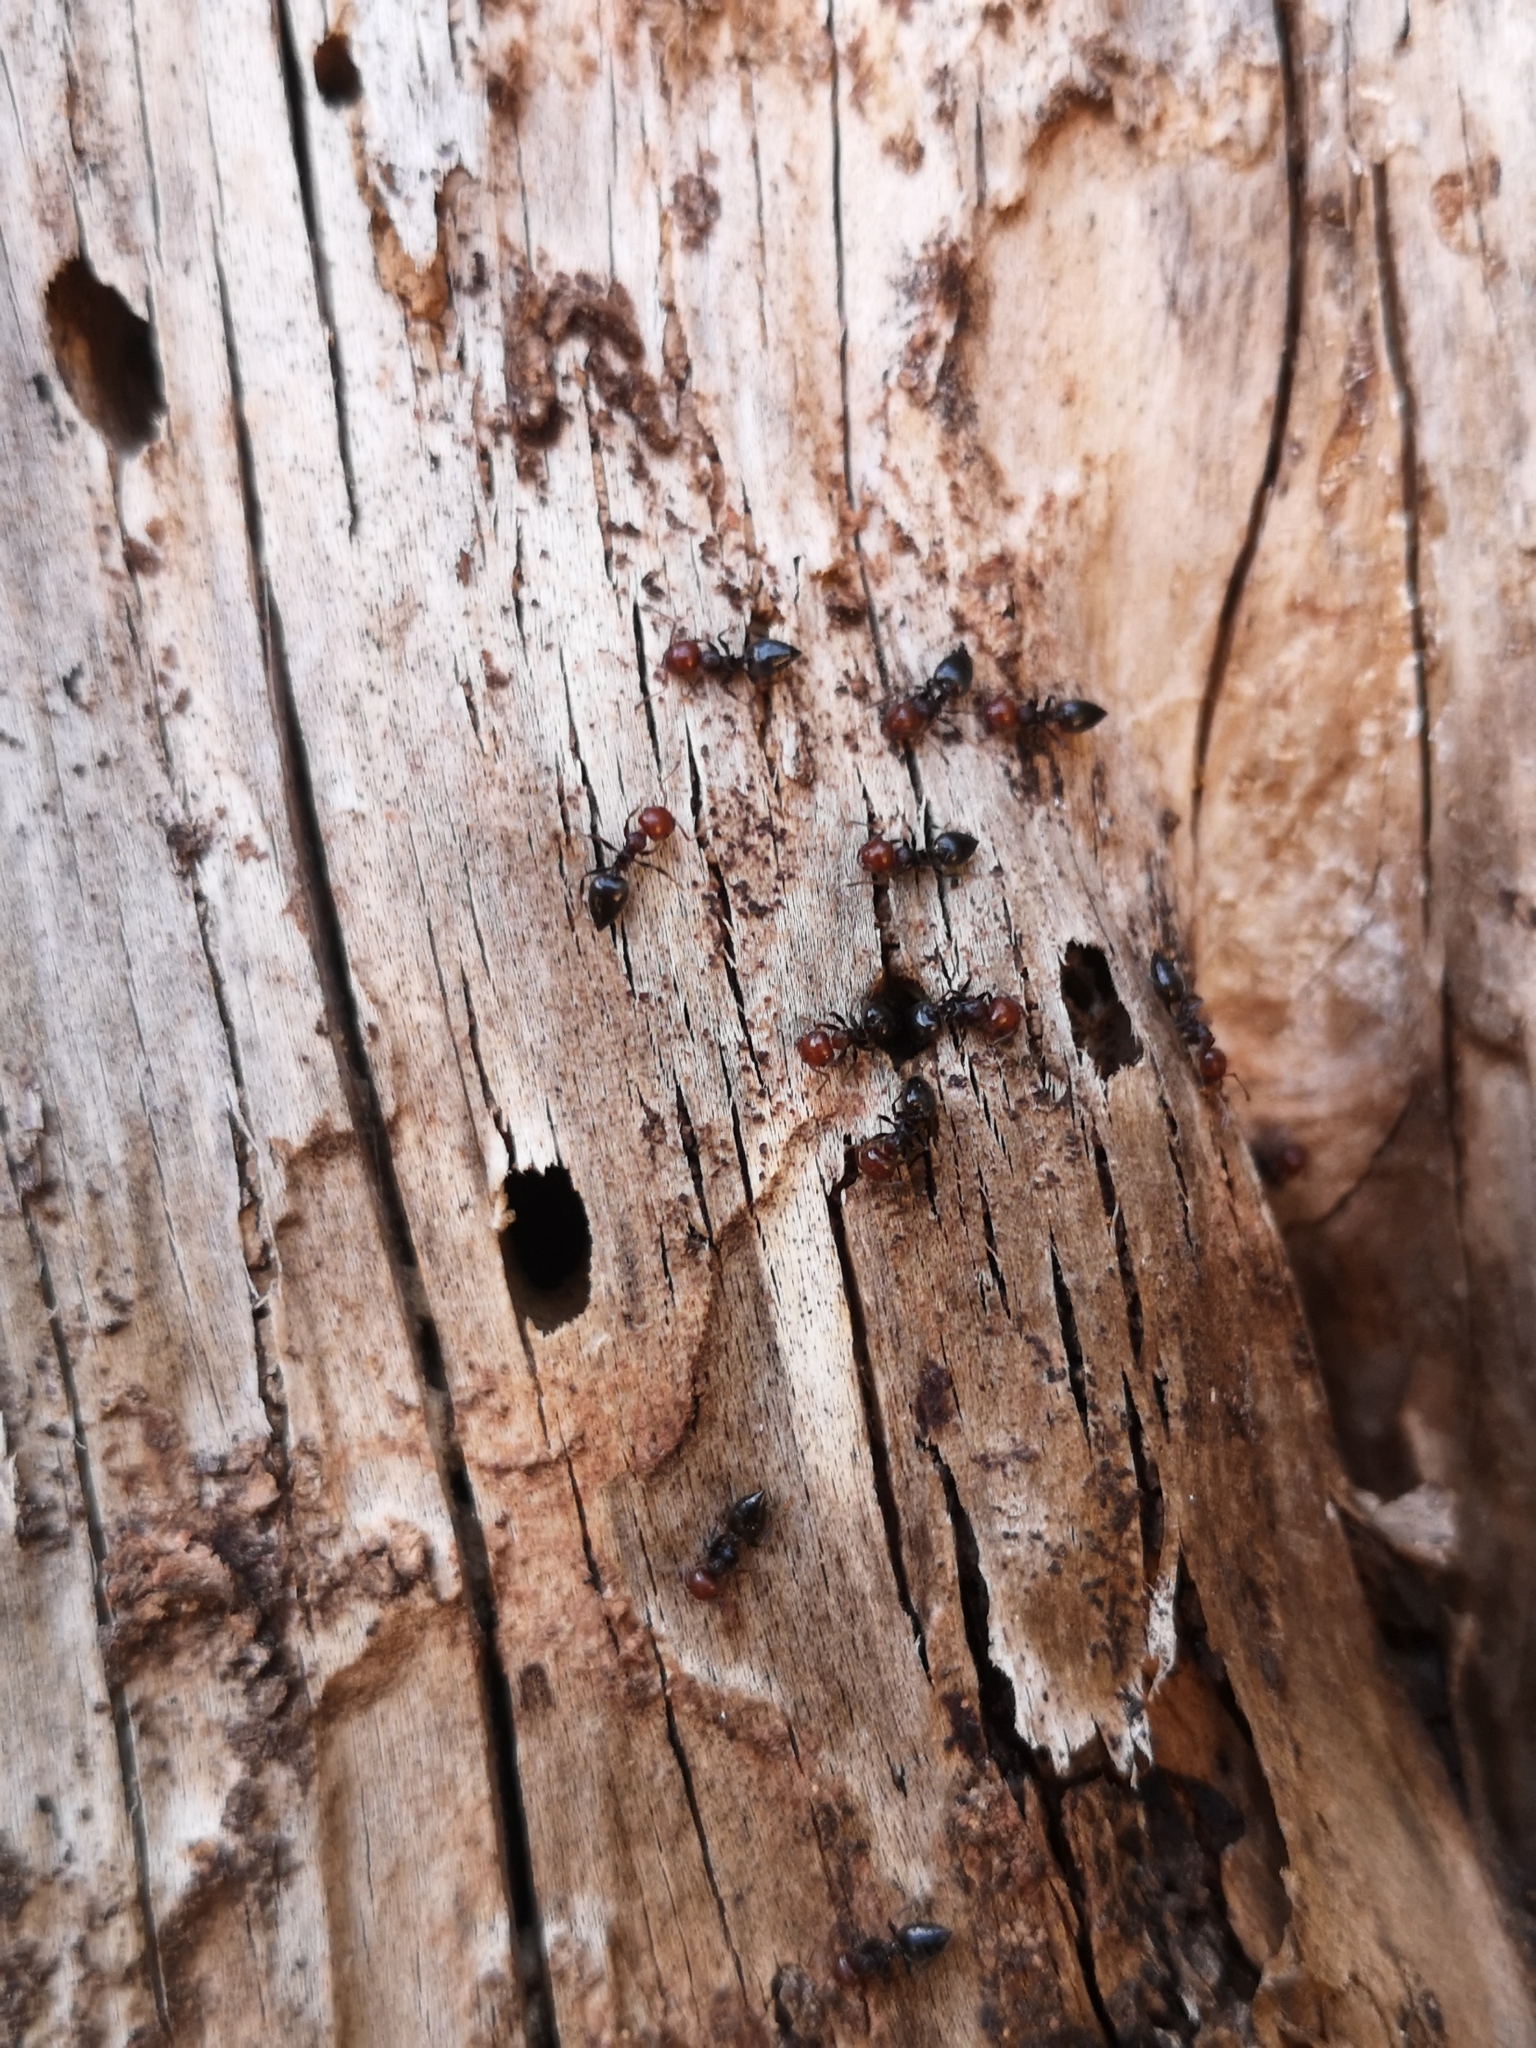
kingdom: Animalia
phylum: Arthropoda
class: Insecta
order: Hymenoptera
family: Formicidae
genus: Crematogaster
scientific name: Crematogaster scutellaris
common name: Fourmi du liège
